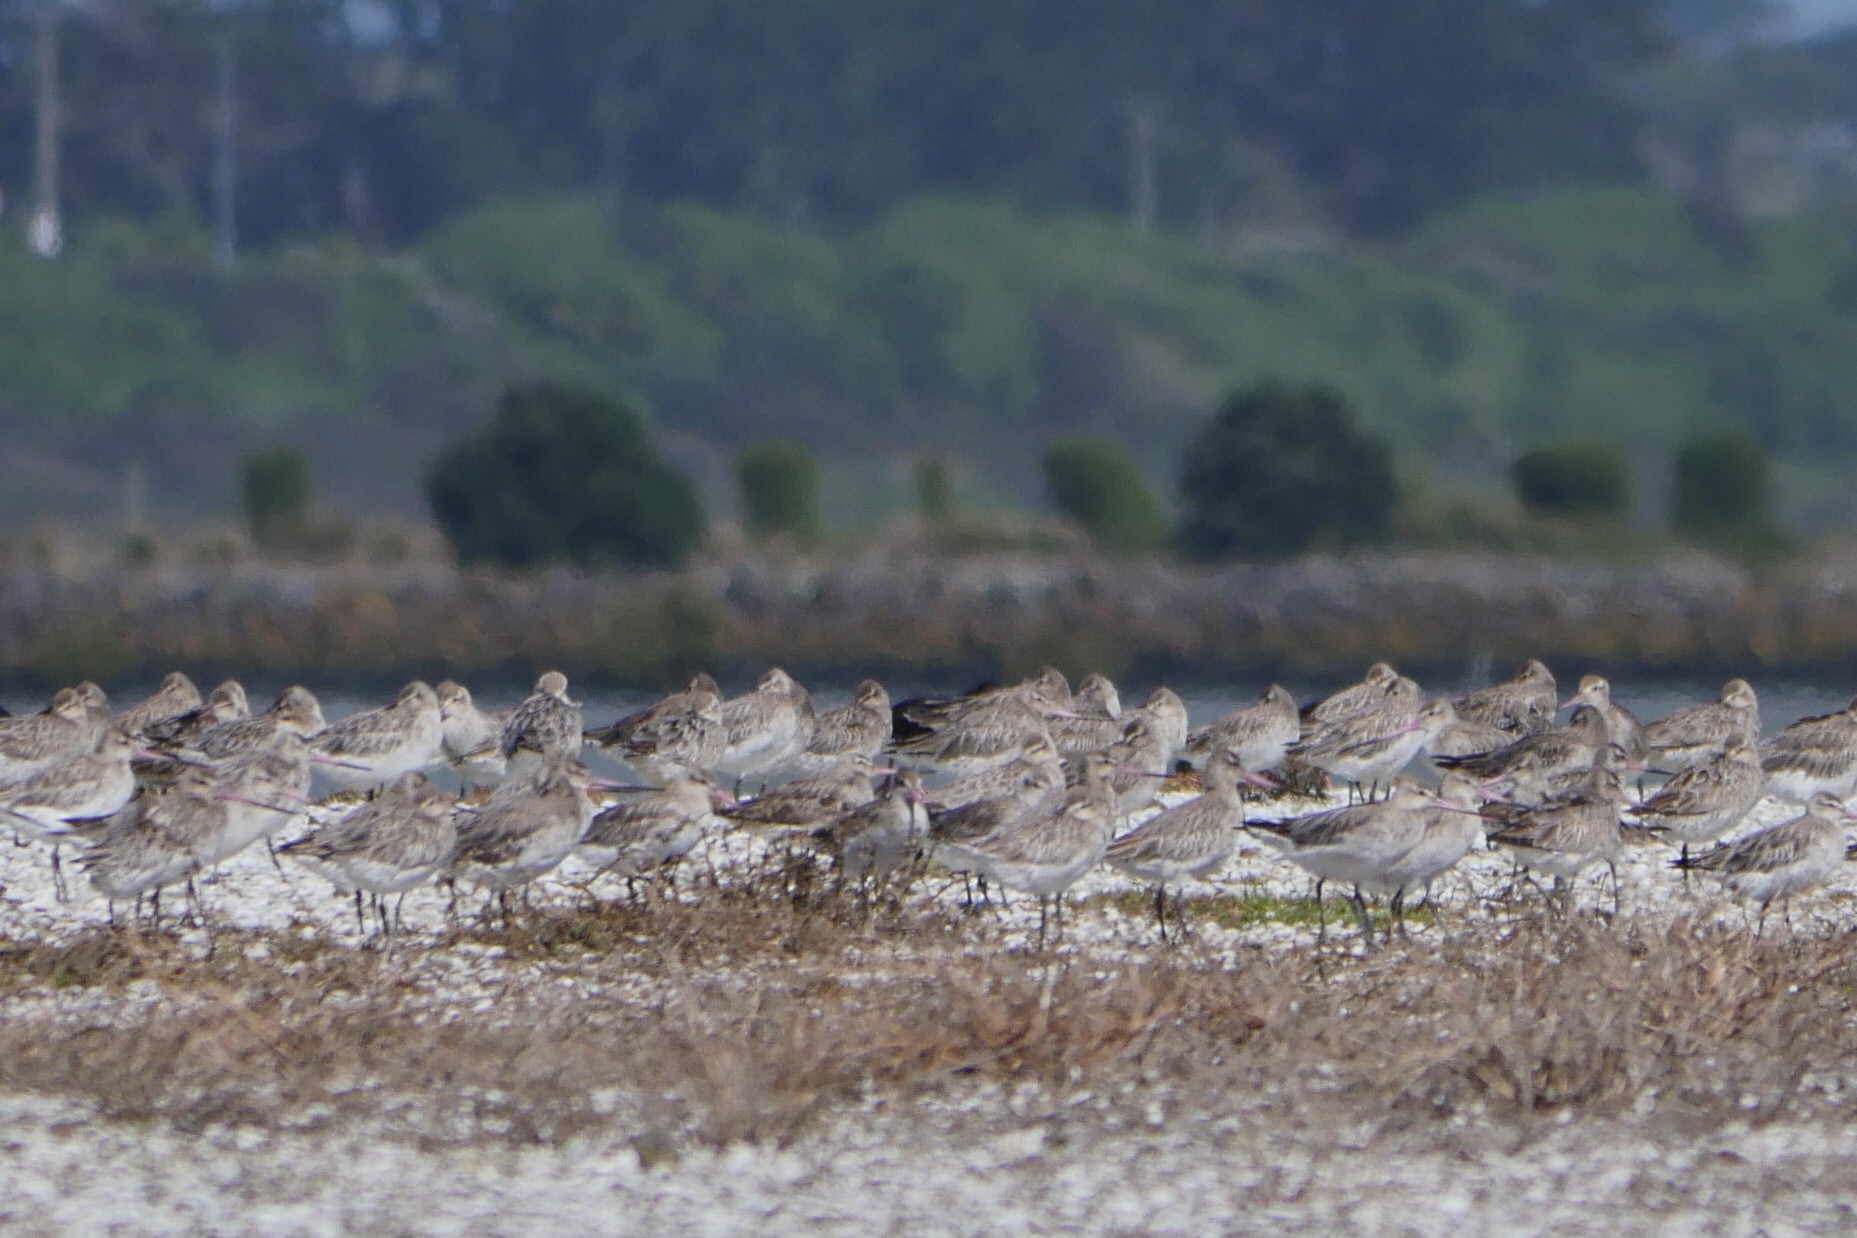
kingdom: Animalia
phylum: Chordata
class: Aves
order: Charadriiformes
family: Scolopacidae
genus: Limosa
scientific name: Limosa lapponica
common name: Bar-tailed godwit
